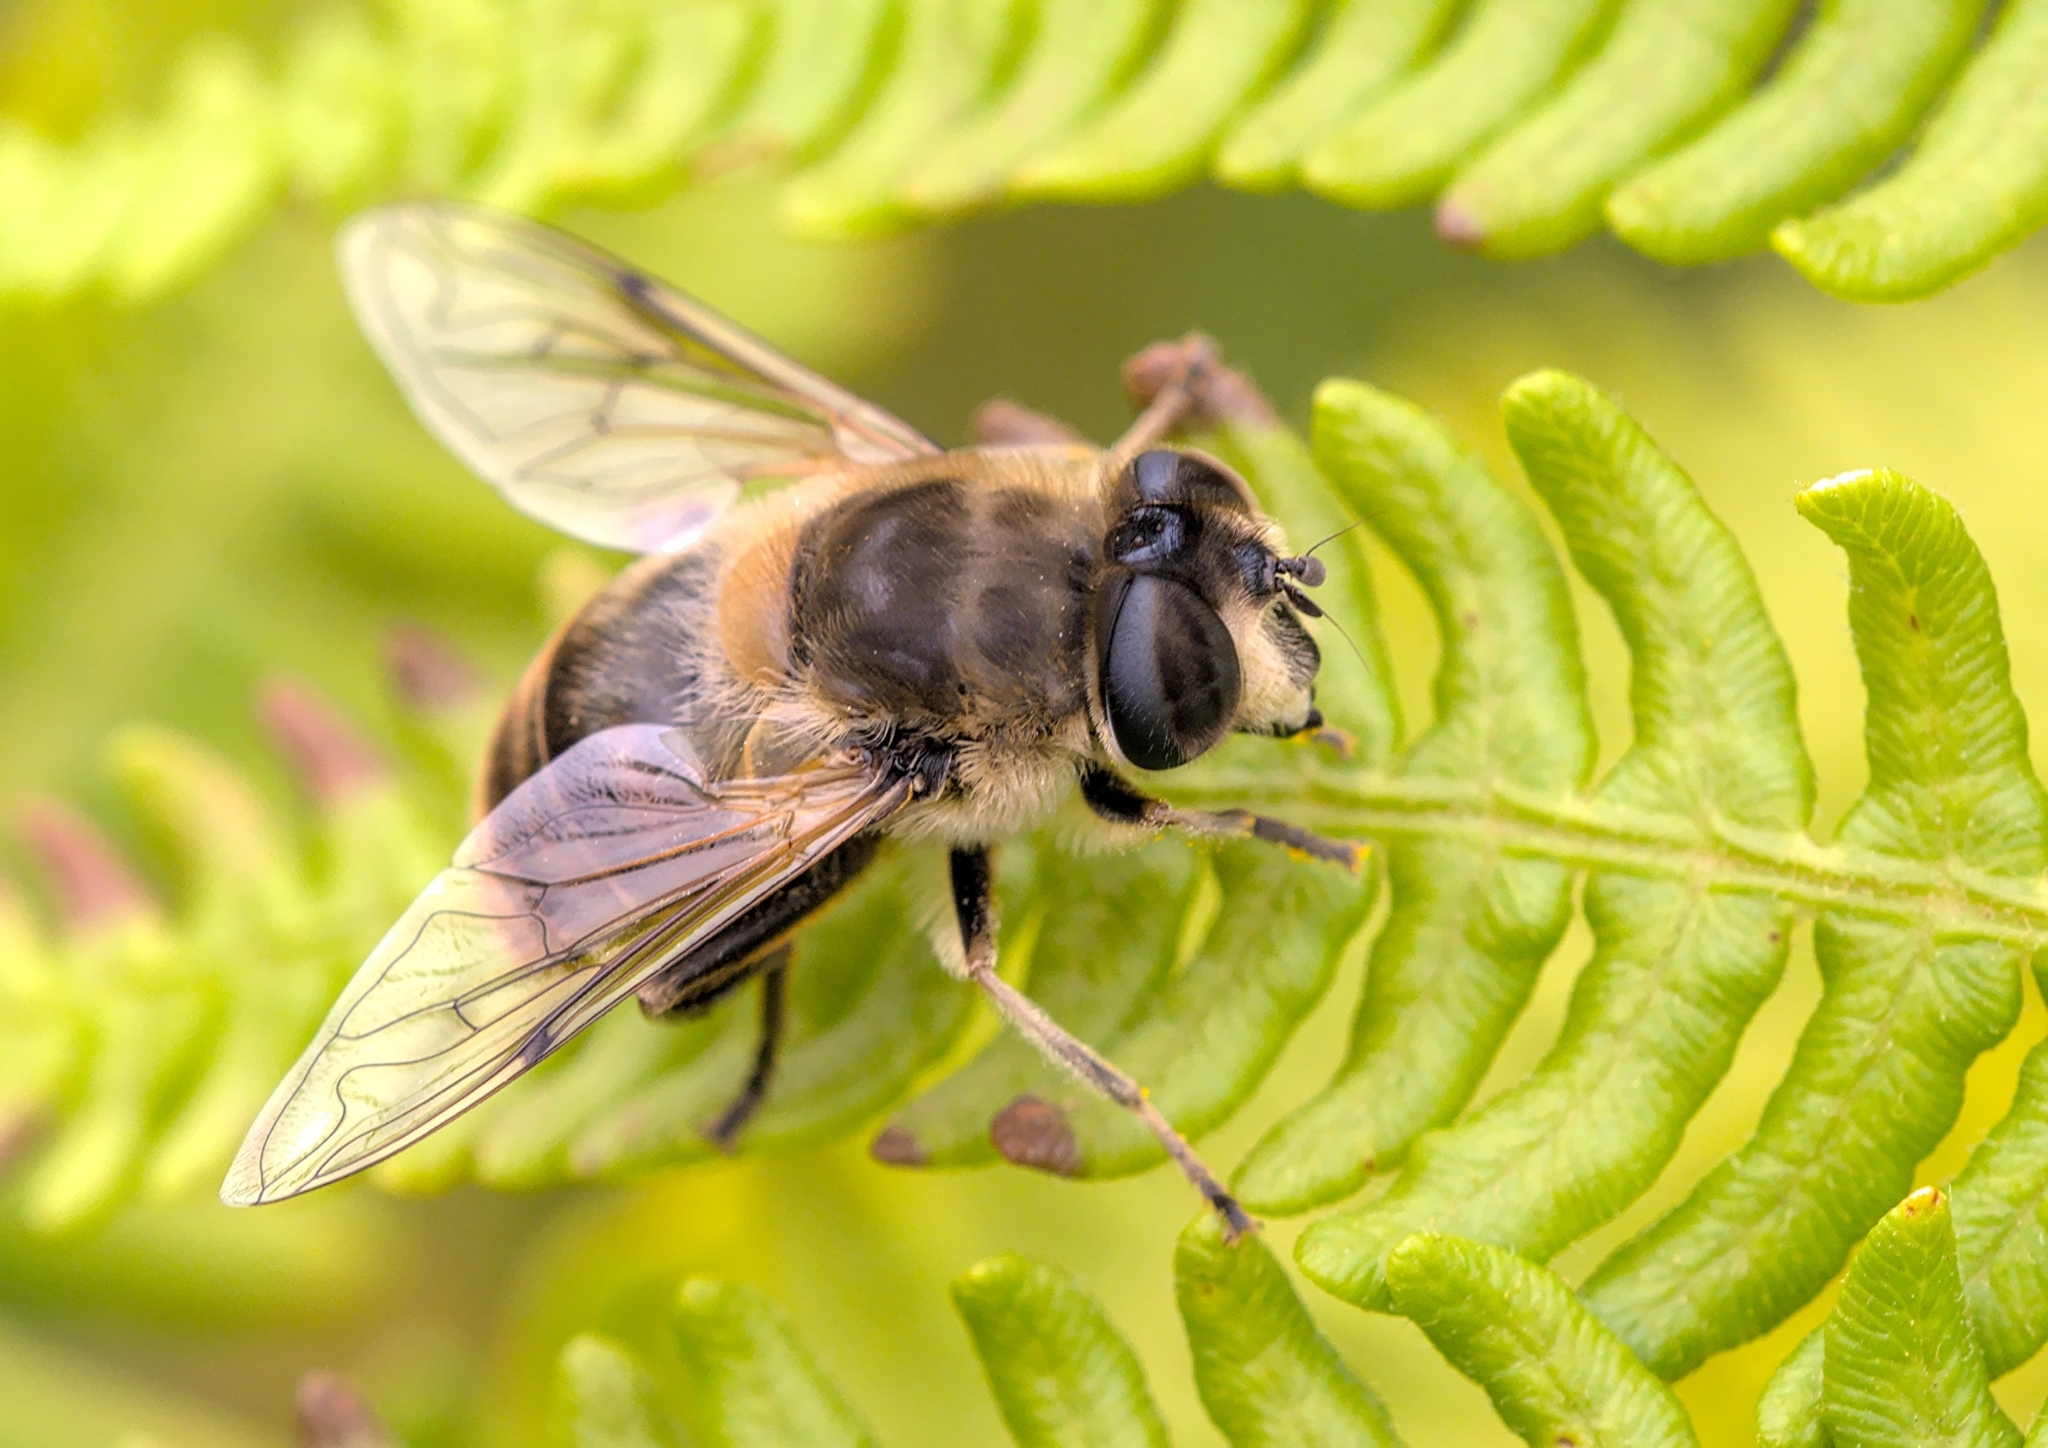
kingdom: Animalia
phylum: Arthropoda
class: Insecta
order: Diptera
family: Syrphidae
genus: Eristalis
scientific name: Eristalis tenax
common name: Drone fly
